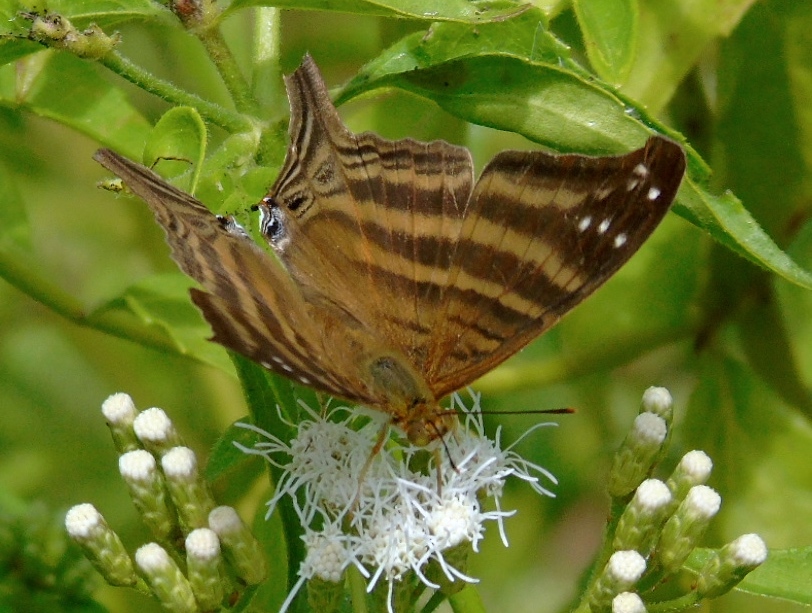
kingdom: Animalia
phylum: Arthropoda
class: Insecta
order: Lepidoptera
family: Nymphalidae
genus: Marpesia
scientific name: Marpesia chiron
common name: Many-banded daggerwing
